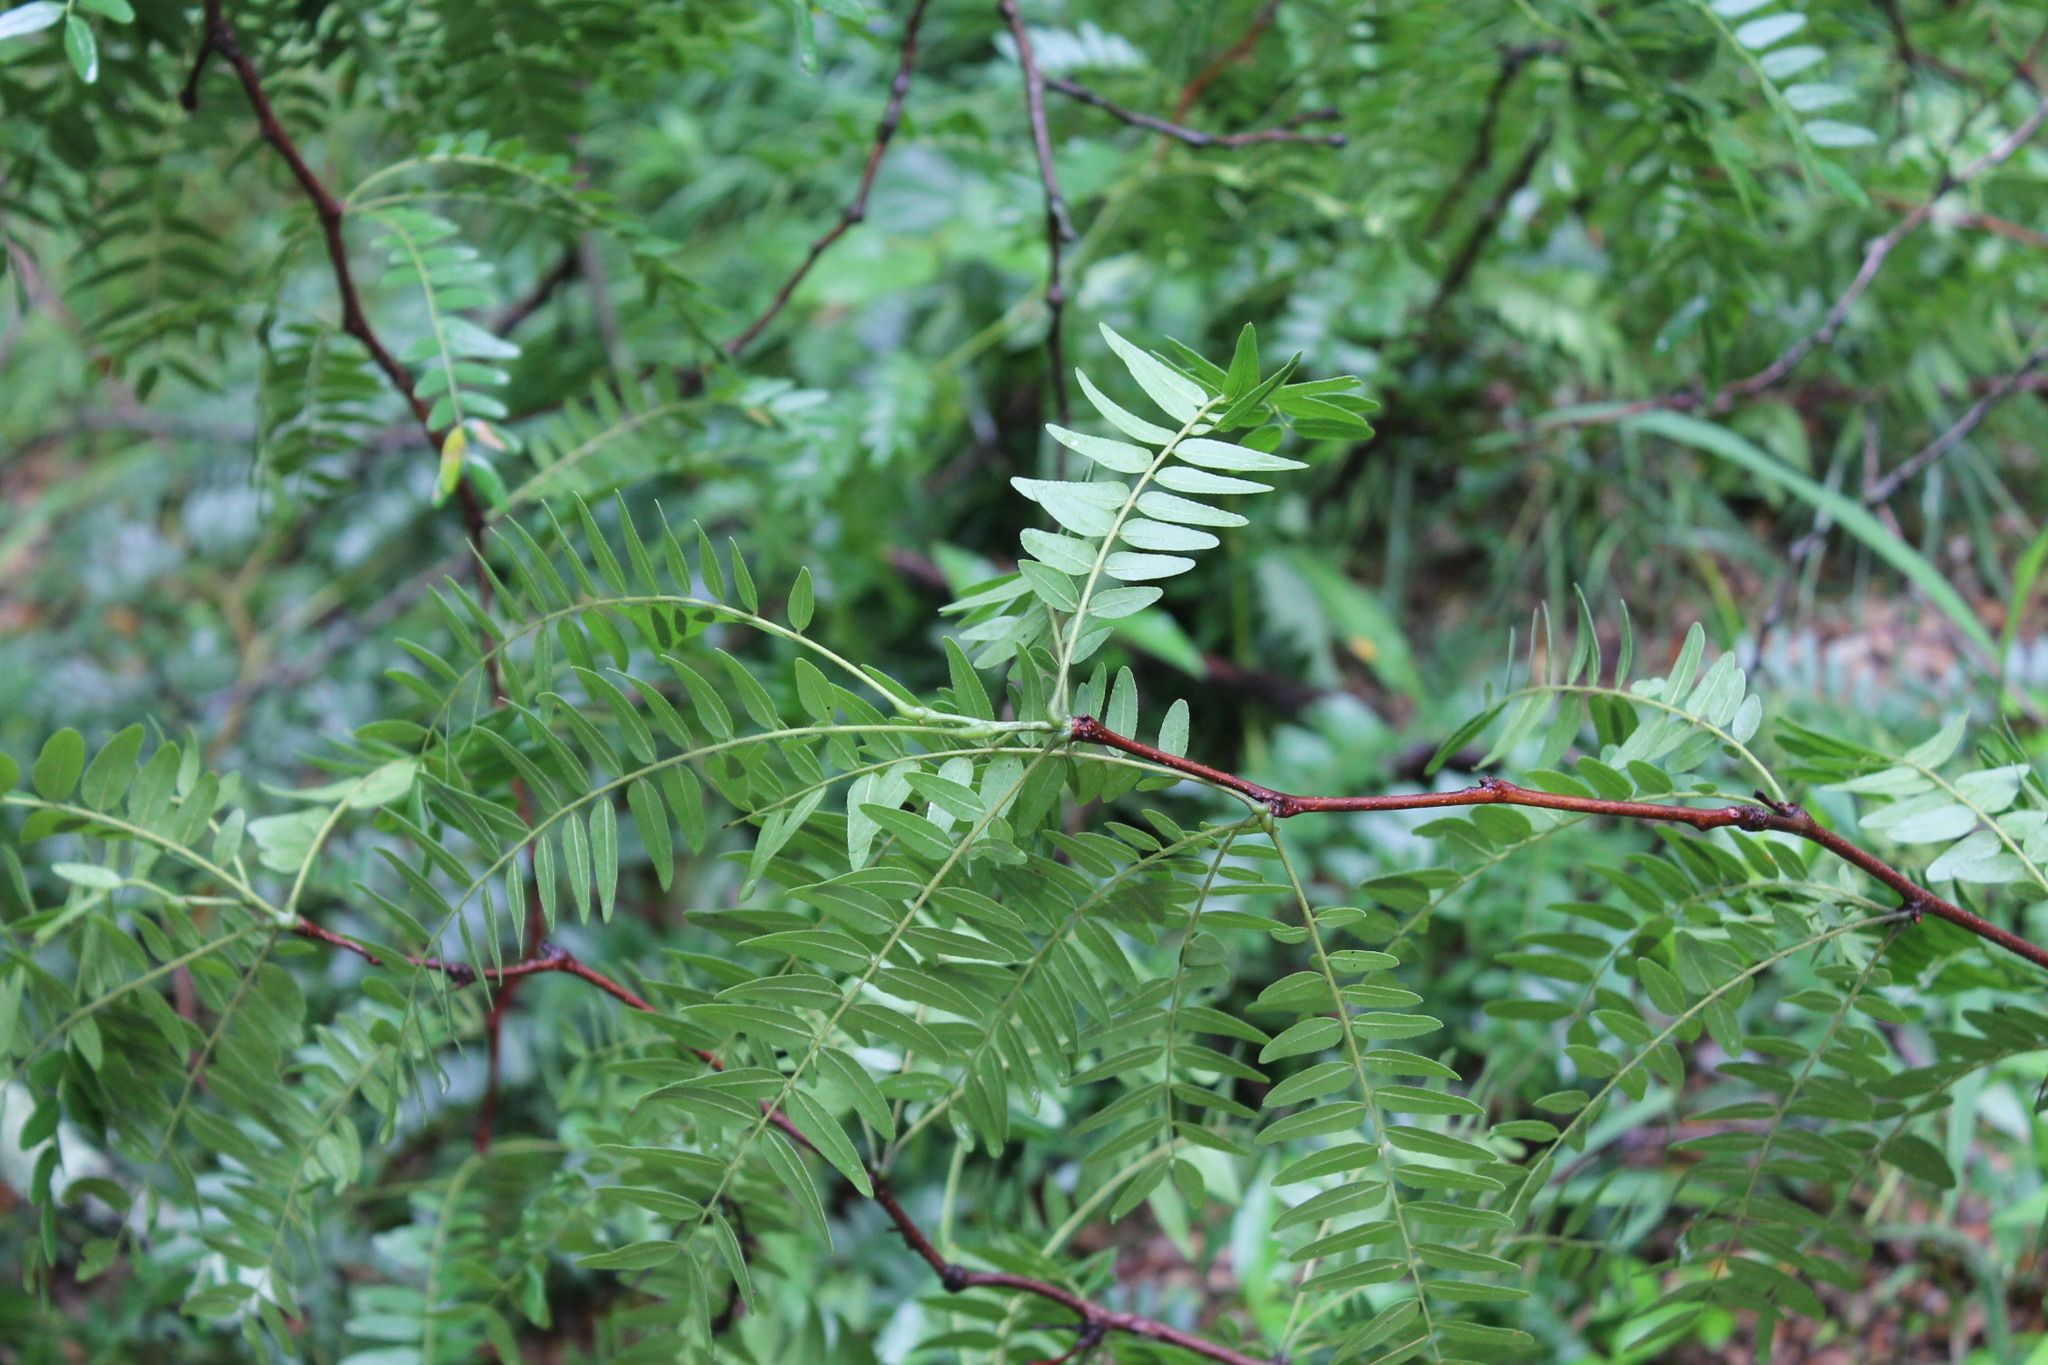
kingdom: Plantae
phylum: Tracheophyta
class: Magnoliopsida
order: Fabales
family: Fabaceae
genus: Gleditsia
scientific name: Gleditsia triacanthos
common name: Common honeylocust
